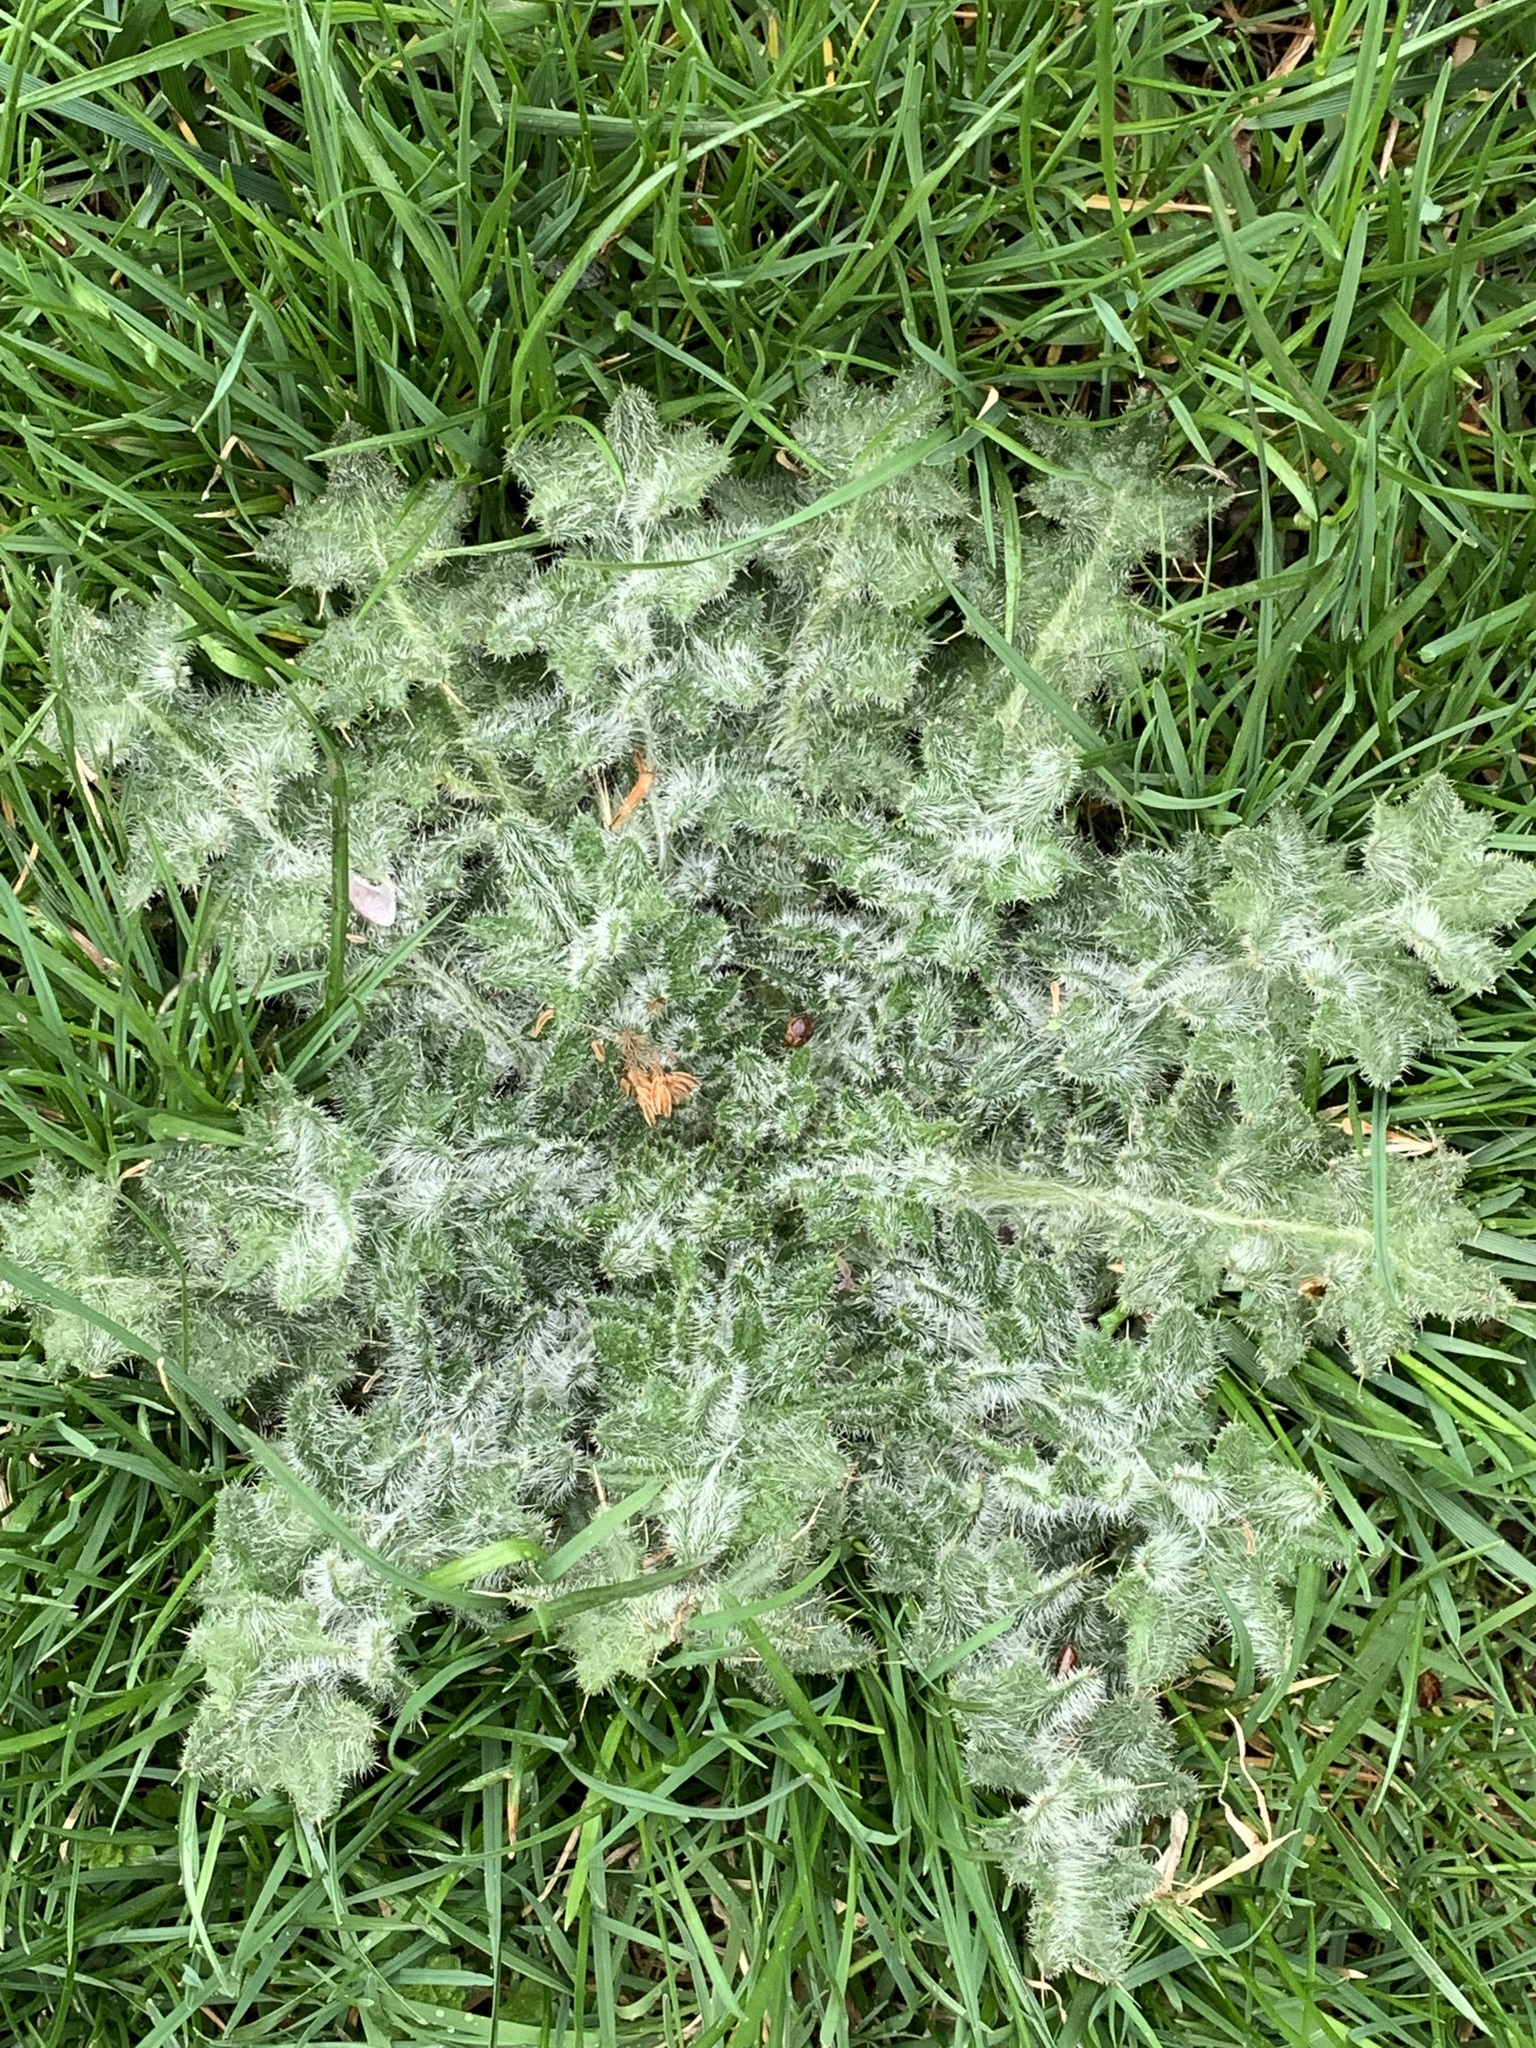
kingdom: Plantae
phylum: Tracheophyta
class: Magnoliopsida
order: Asterales
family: Asteraceae
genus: Cirsium
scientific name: Cirsium vulgare
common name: Bull thistle
